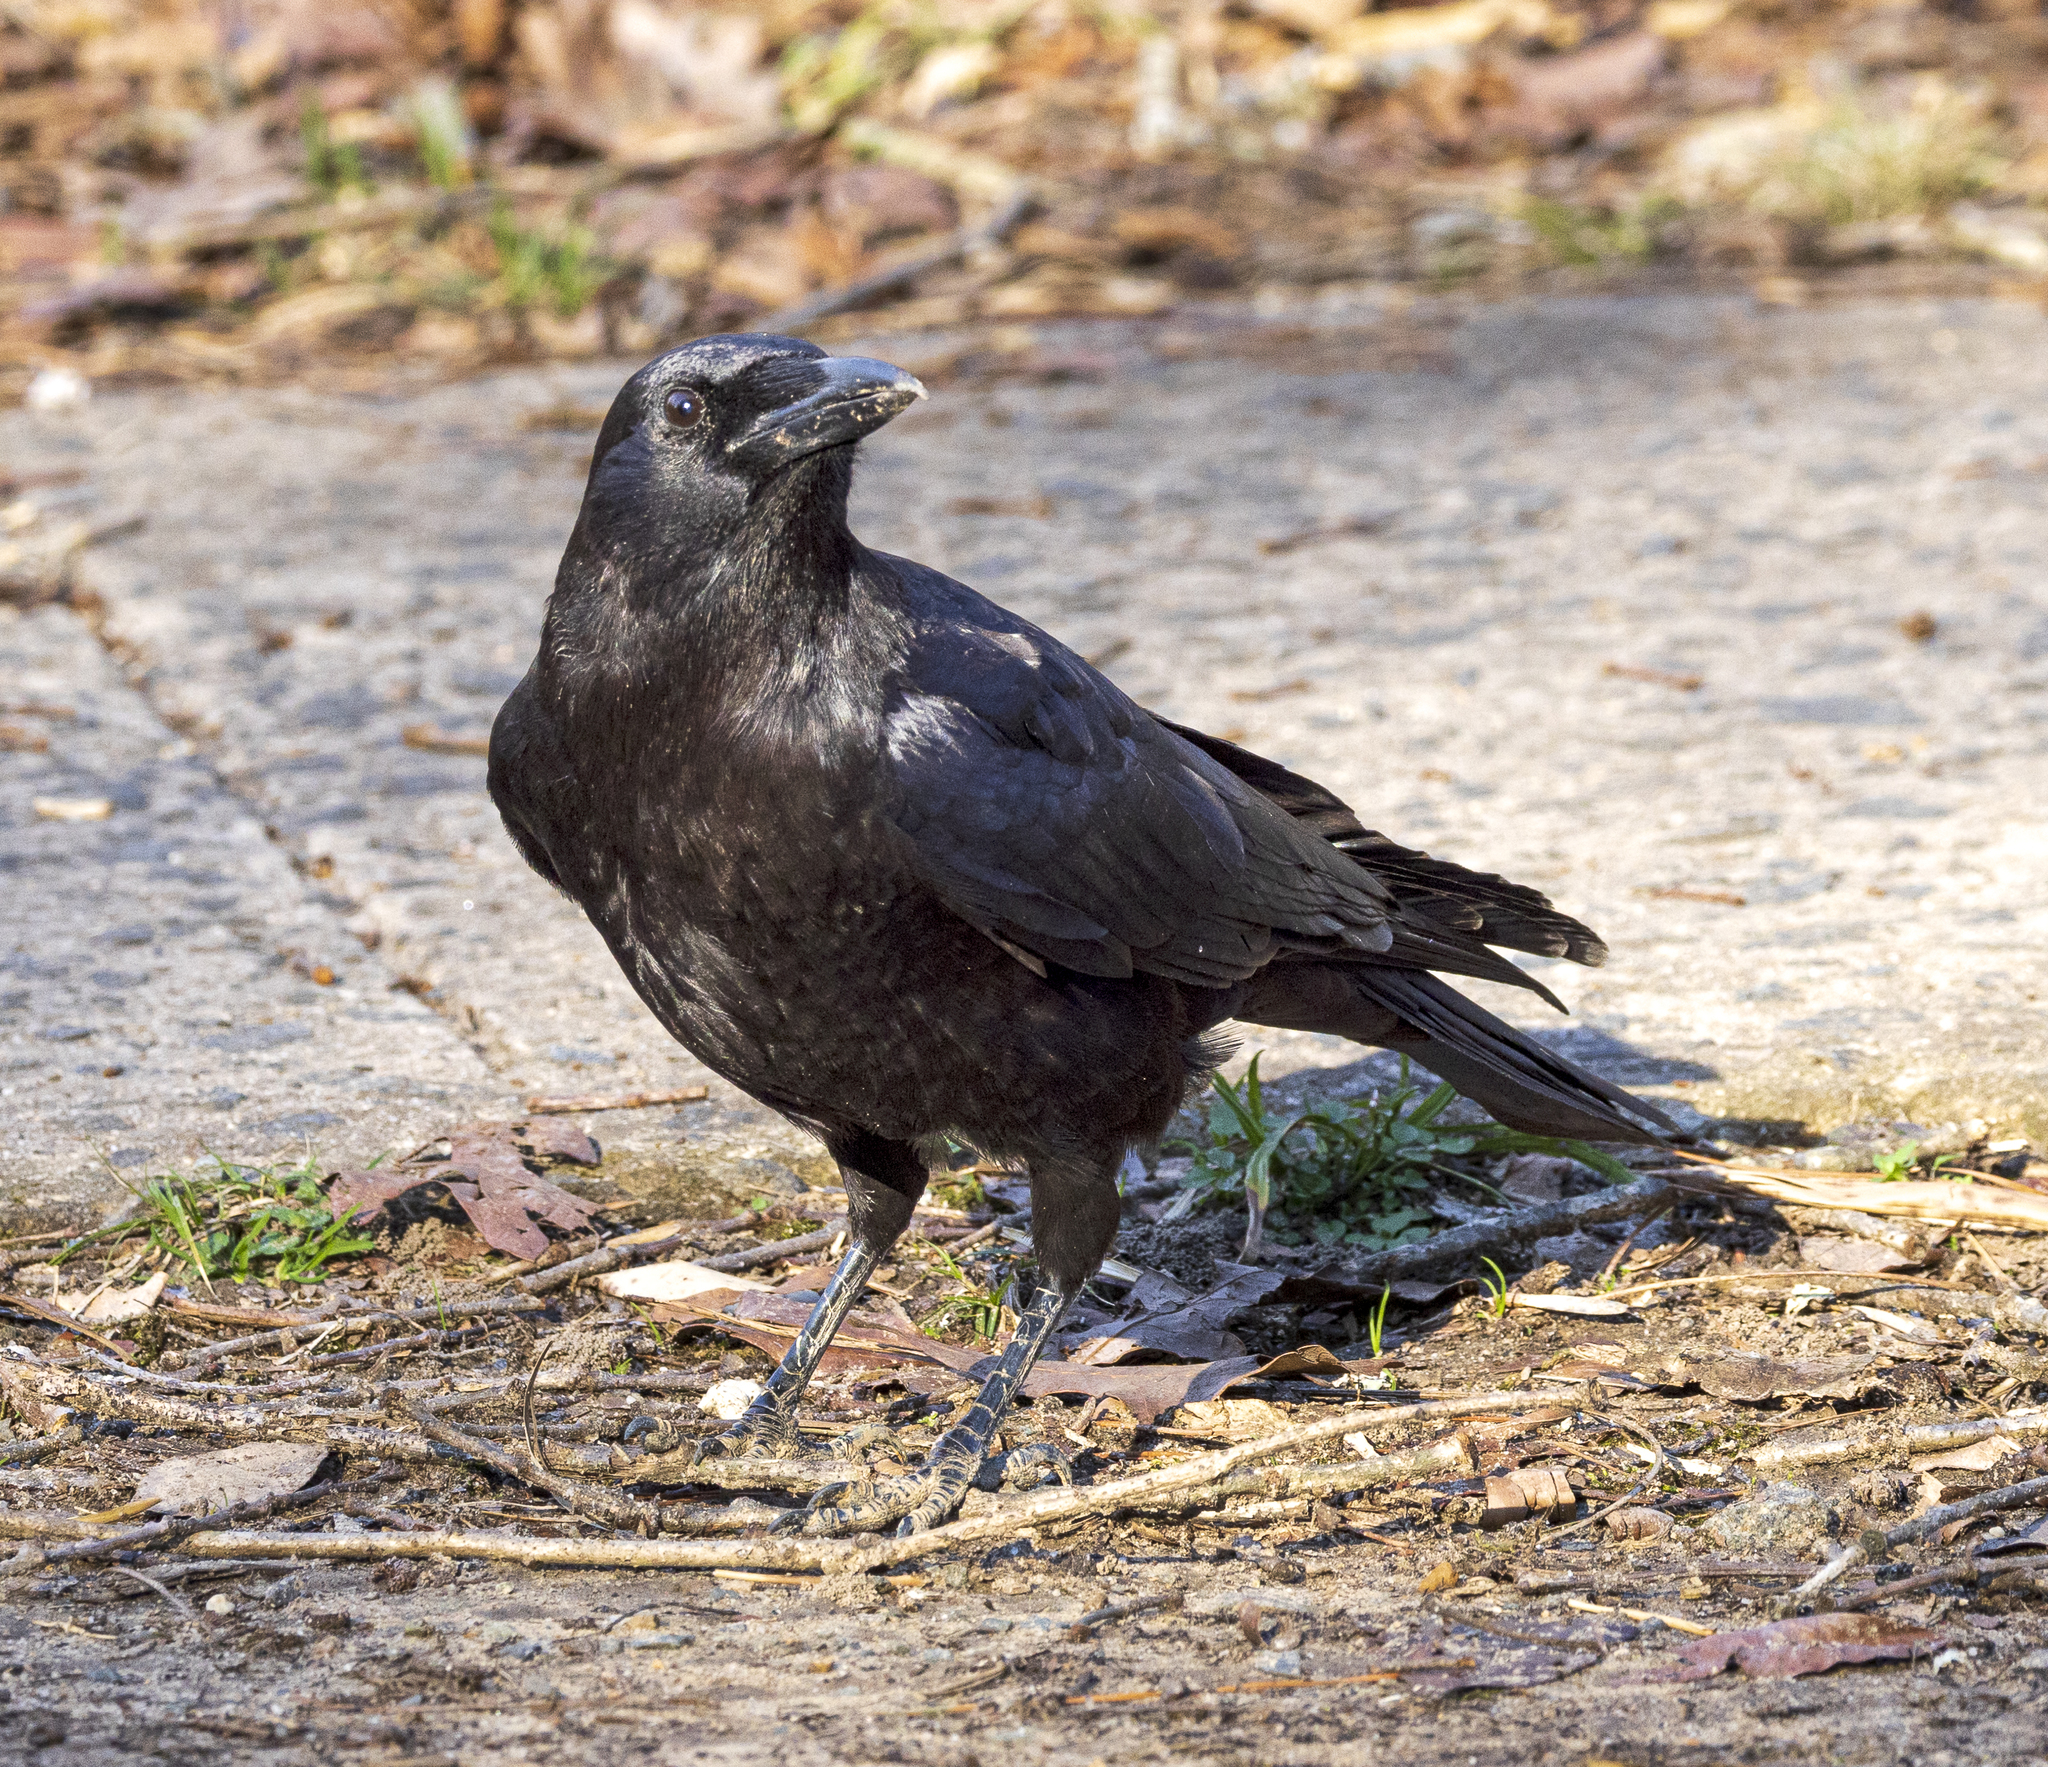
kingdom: Animalia
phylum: Chordata
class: Aves
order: Passeriformes
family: Corvidae
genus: Corvus
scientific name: Corvus
